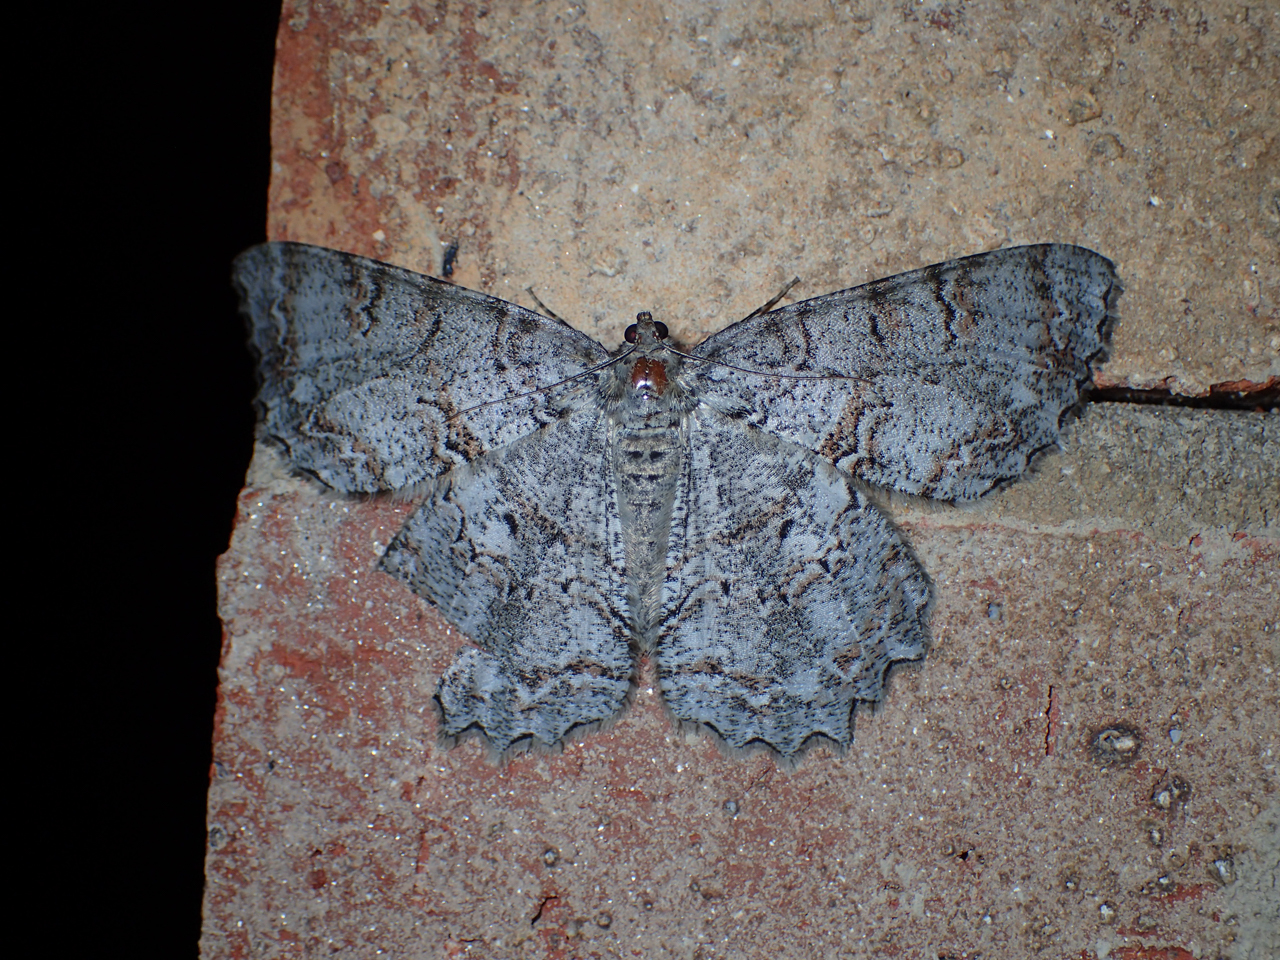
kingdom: Animalia
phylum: Arthropoda
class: Insecta
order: Lepidoptera
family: Geometridae
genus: Epimecis
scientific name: Epimecis hortaria
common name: Tulip-tree beauty
